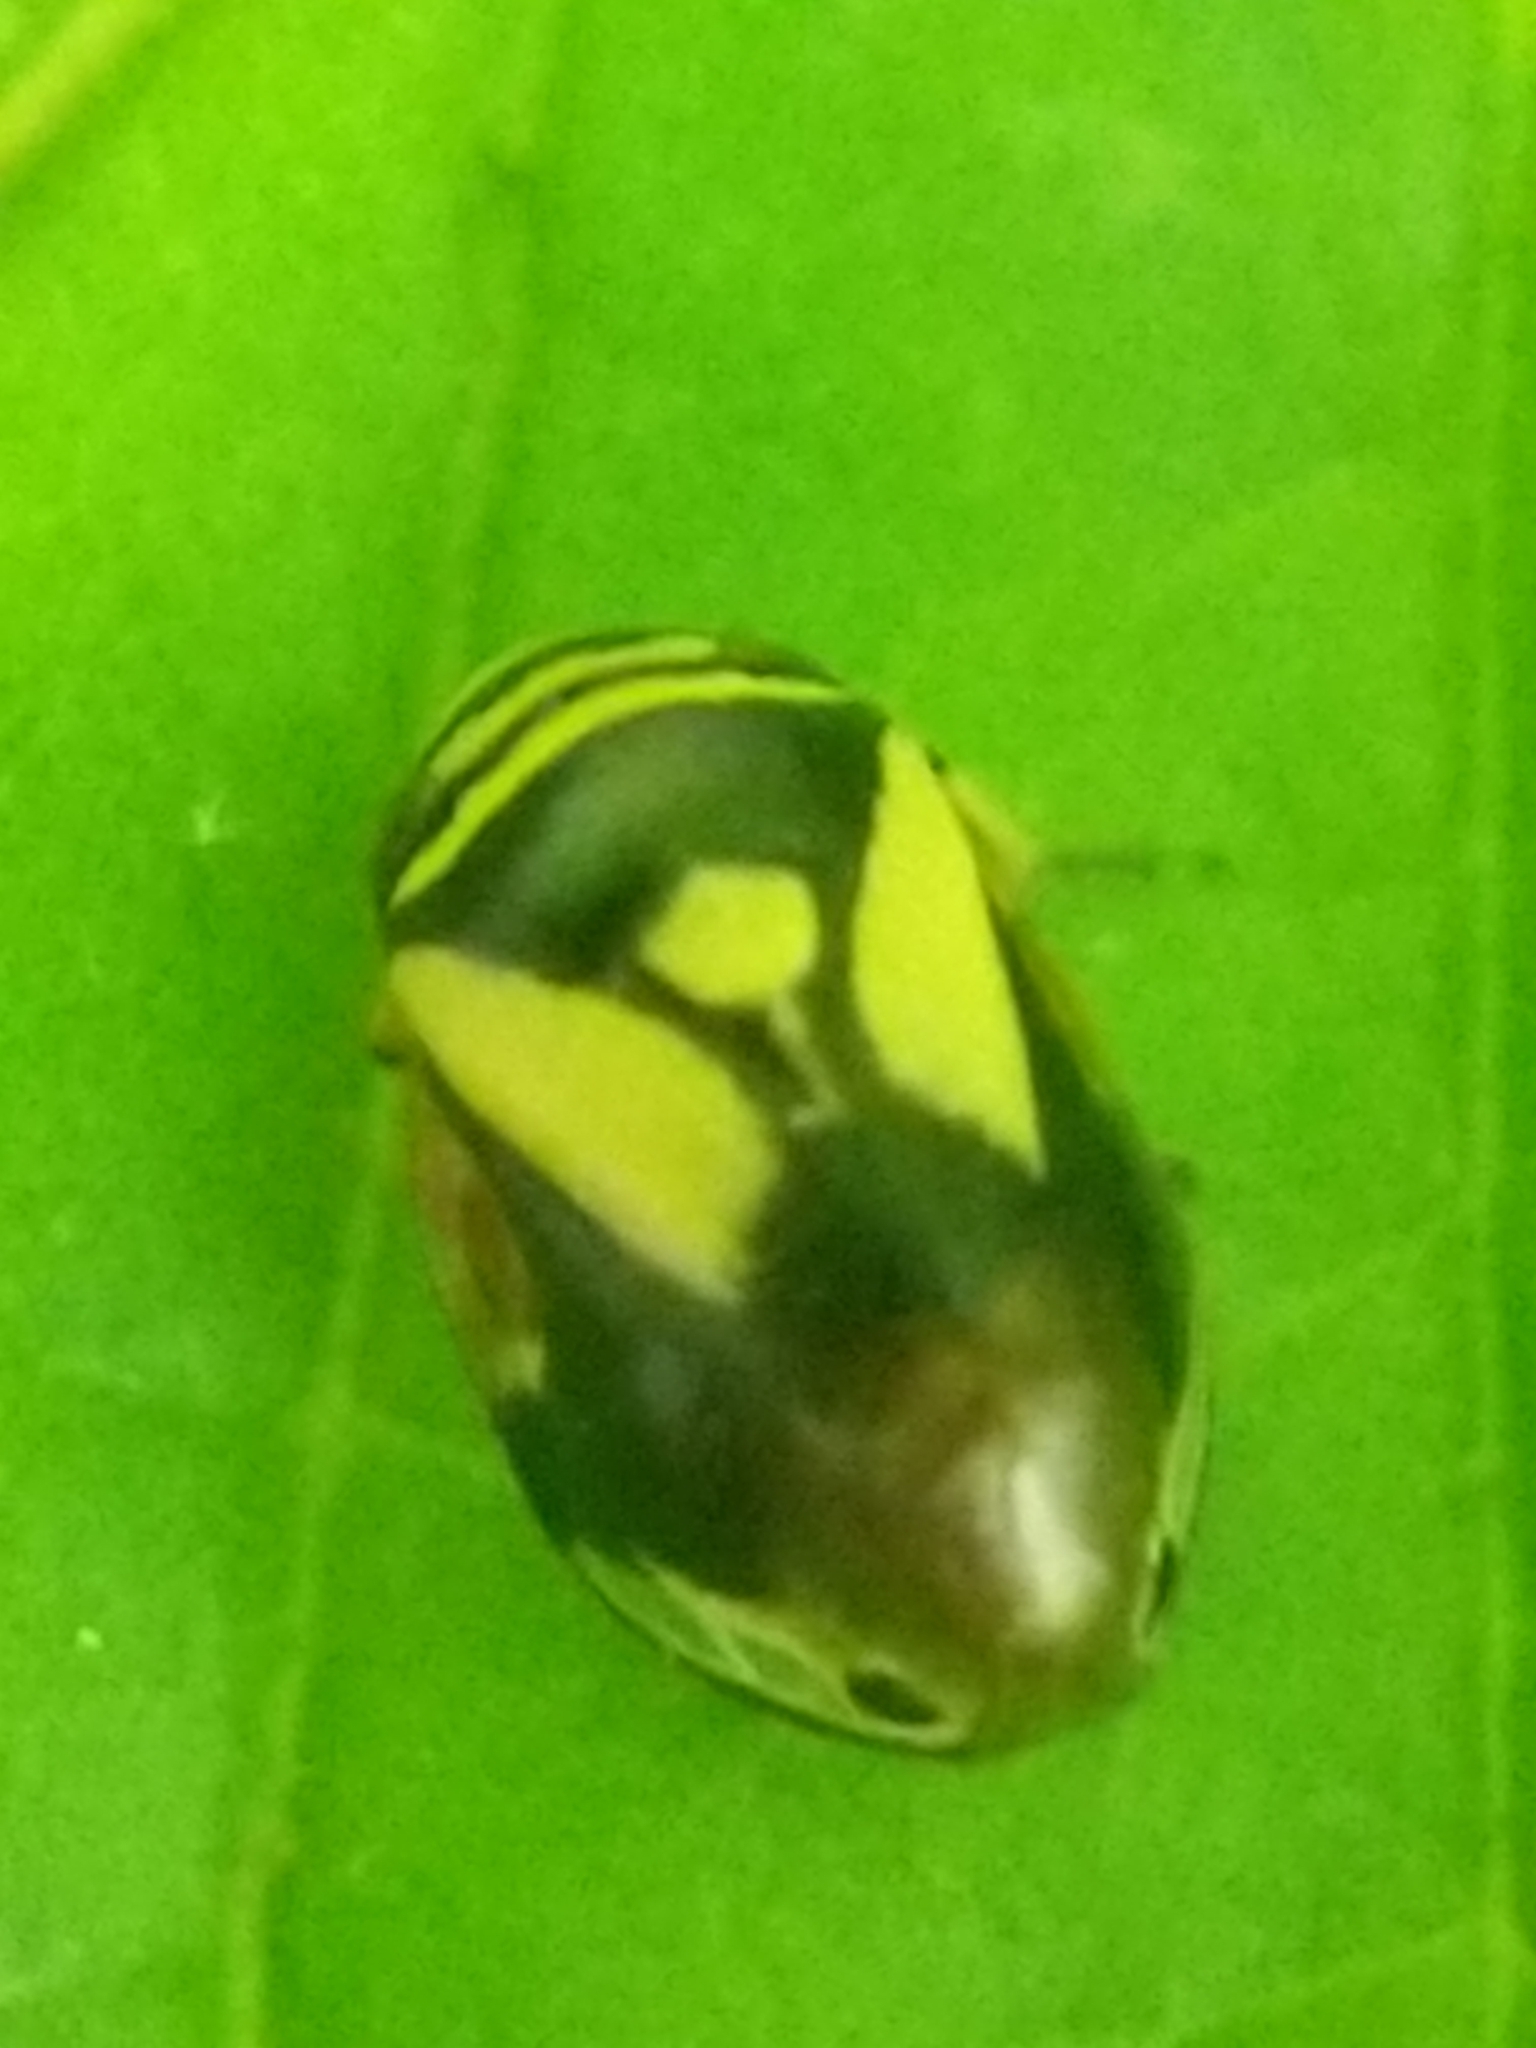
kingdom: Animalia
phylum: Arthropoda
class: Insecta
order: Hemiptera
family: Clastopteridae
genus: Clastoptera
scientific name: Clastoptera proteus
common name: Dogwood spittlebug
